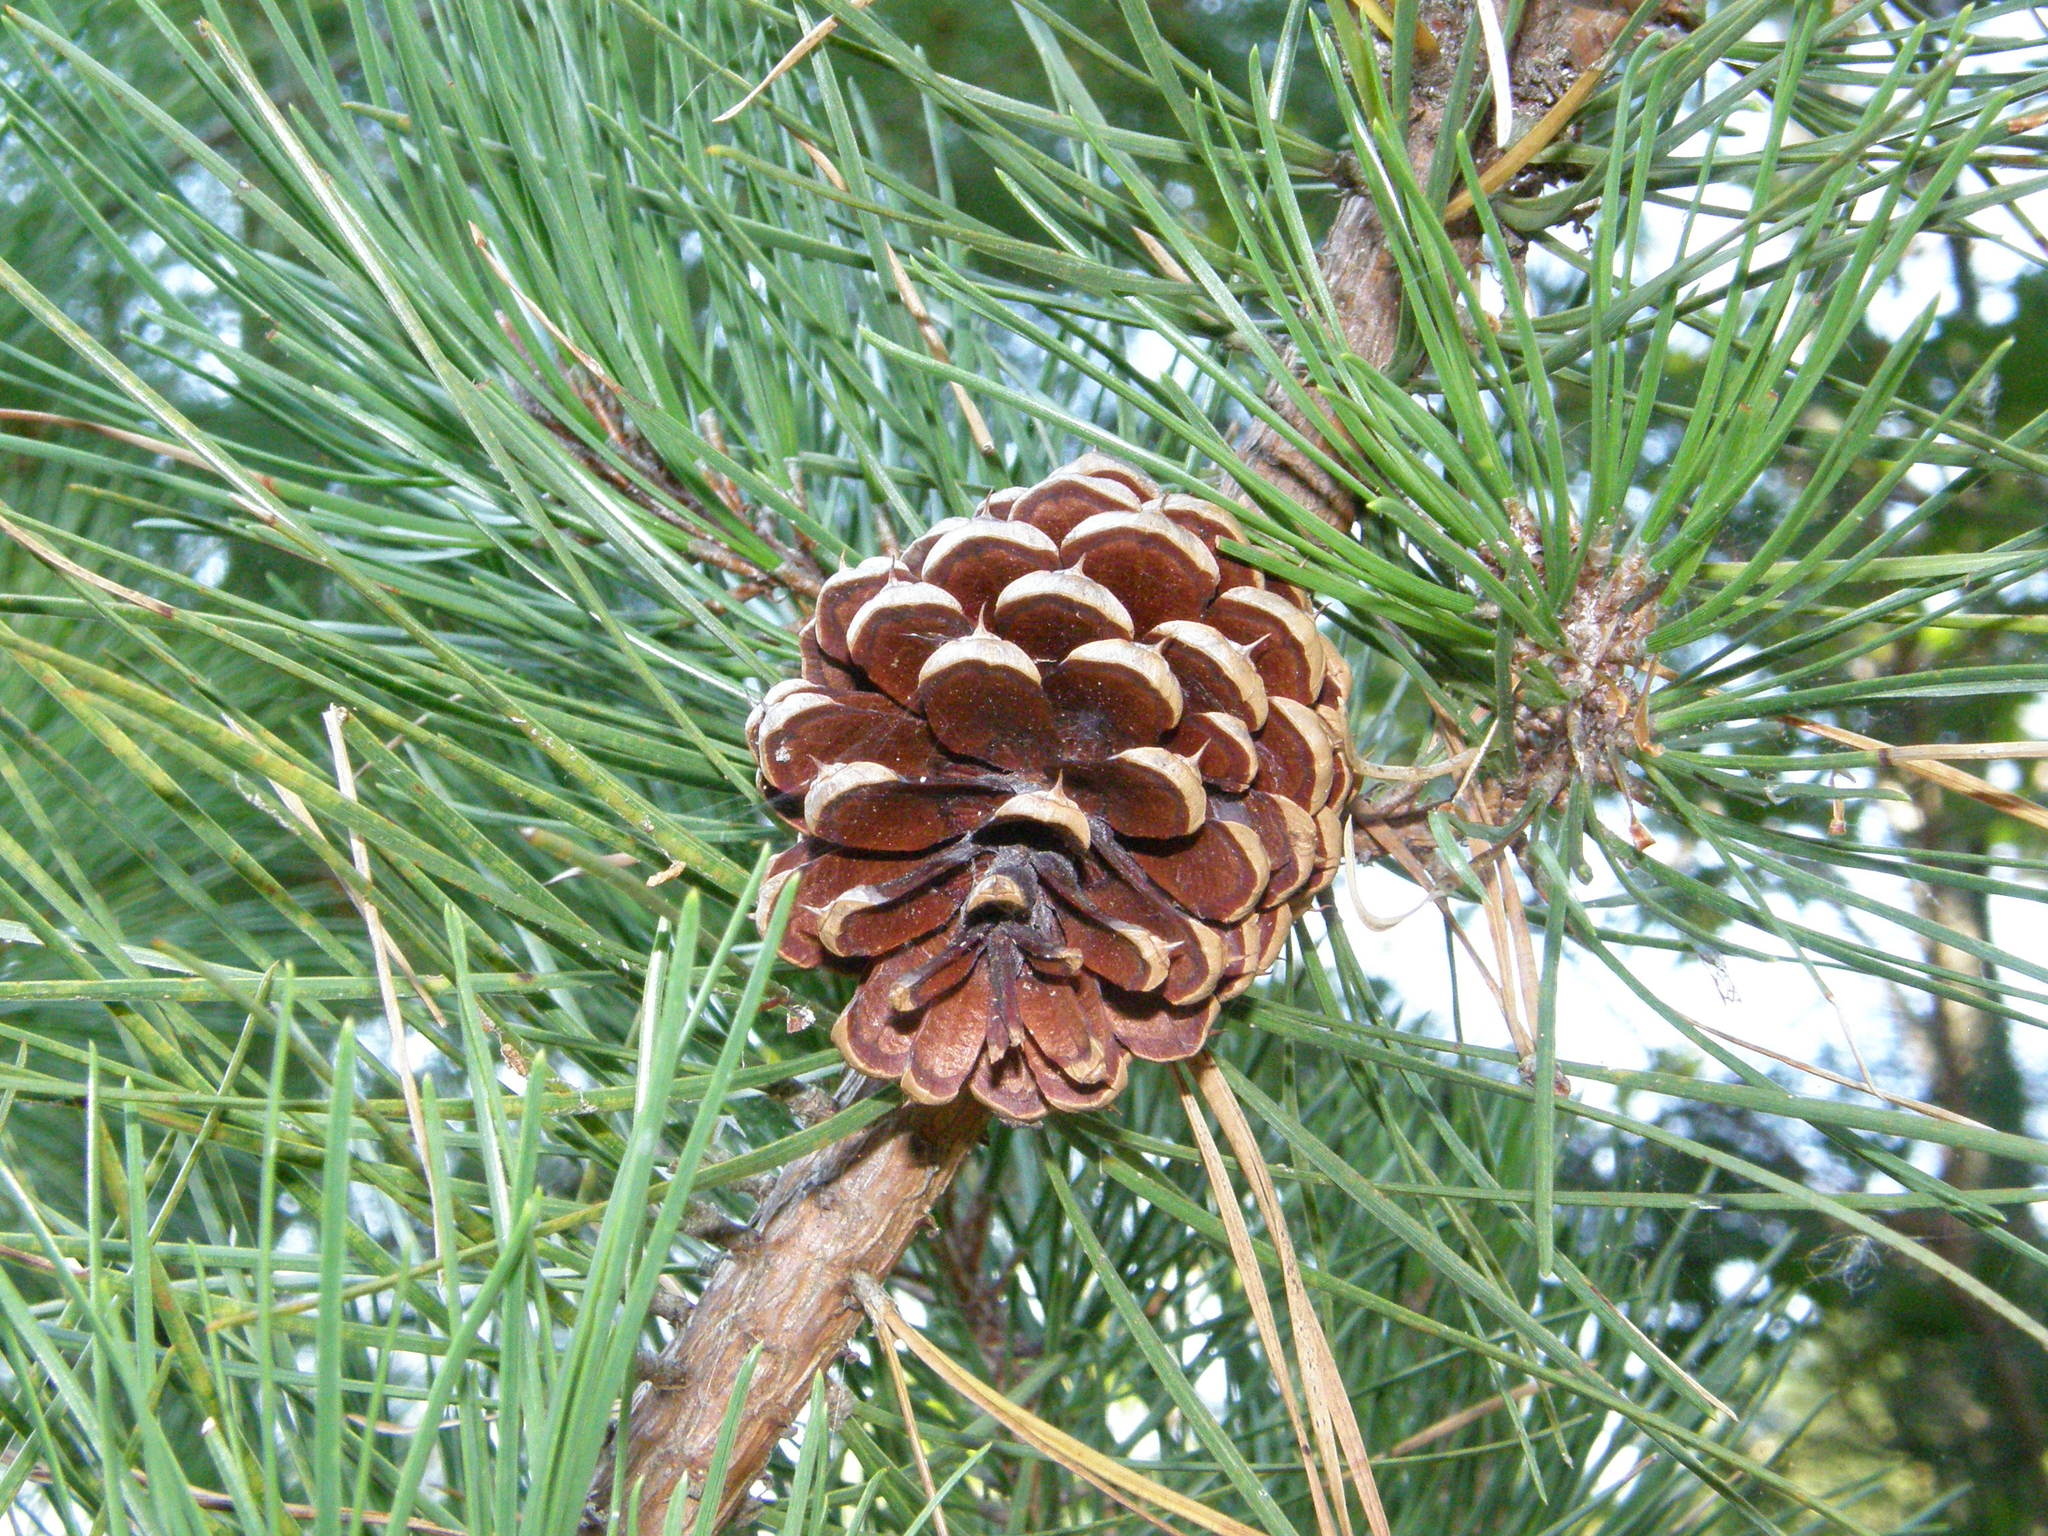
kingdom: Plantae
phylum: Tracheophyta
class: Pinopsida
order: Pinales
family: Pinaceae
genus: Pinus
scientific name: Pinus rigida
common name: Pitch pine
